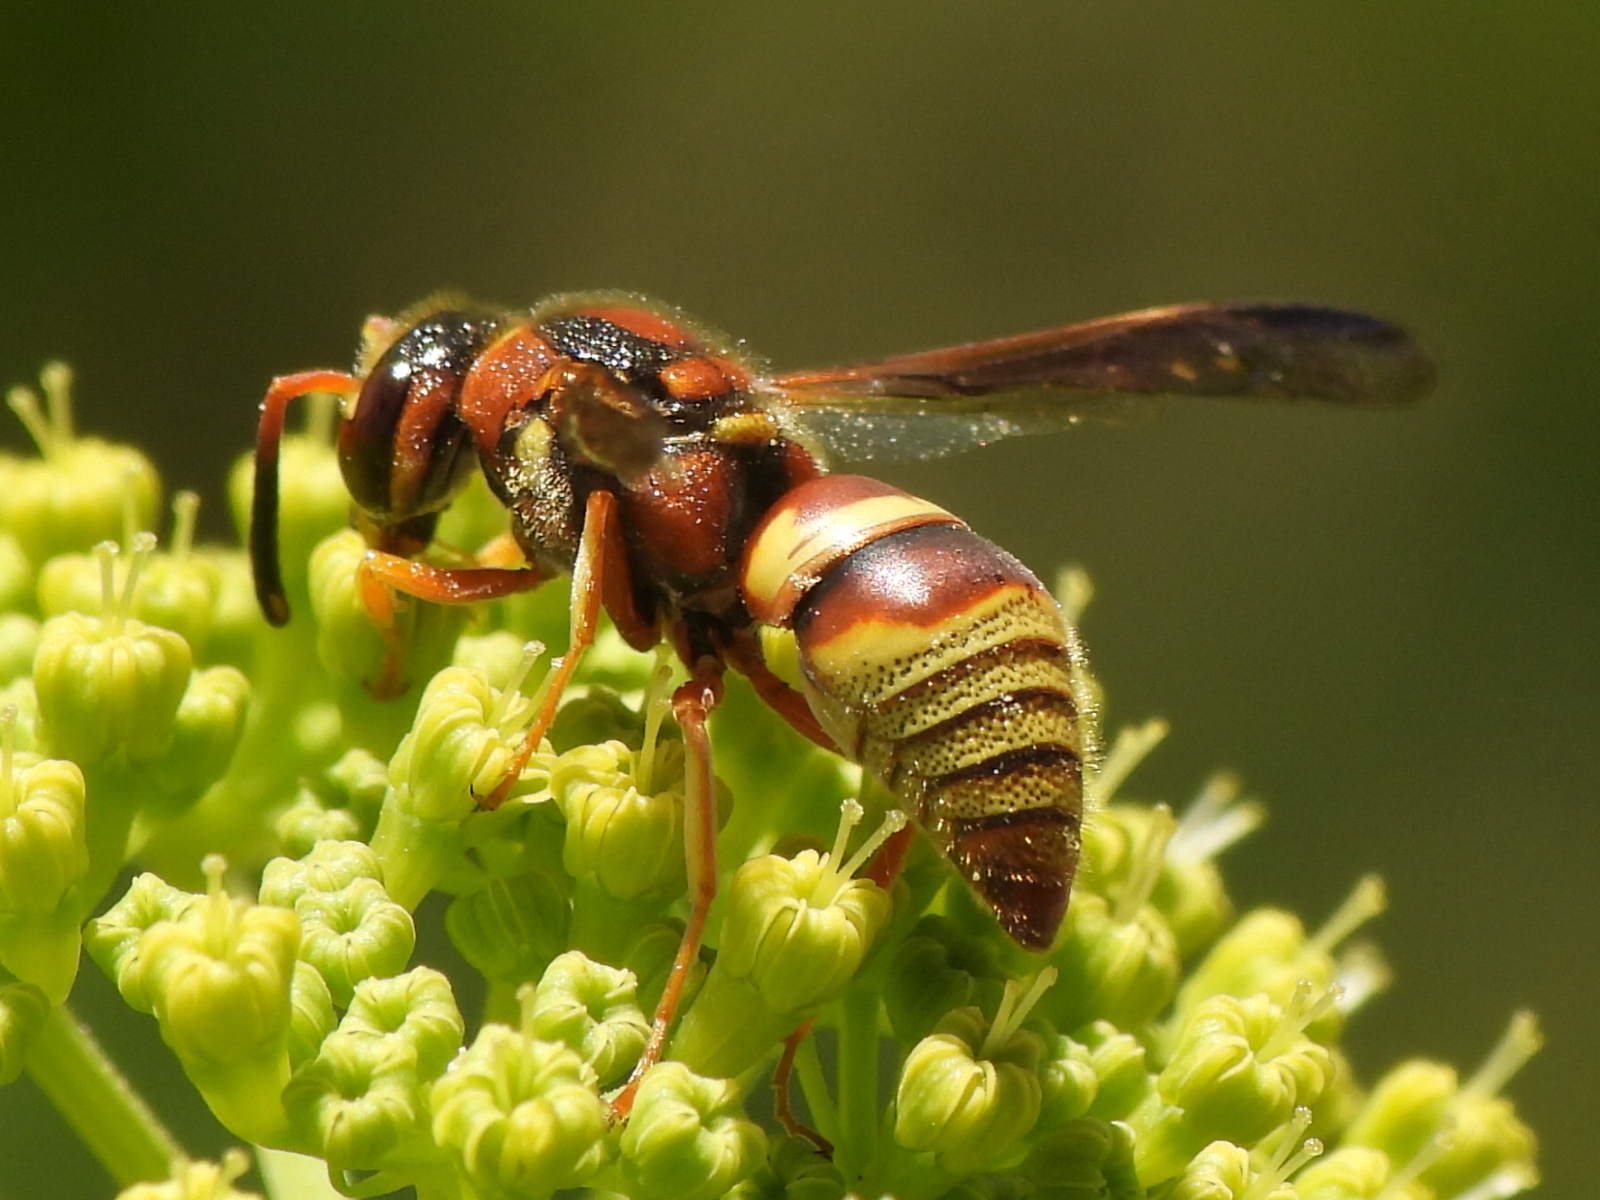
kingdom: Animalia
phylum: Arthropoda
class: Insecta
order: Hymenoptera
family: Eumenidae
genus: Euodynerus
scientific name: Euodynerus pratensis
